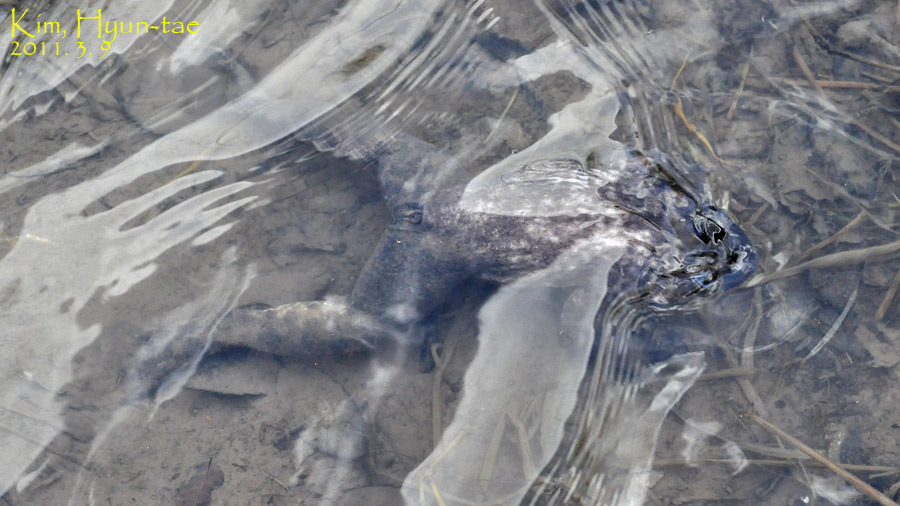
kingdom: Animalia
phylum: Chordata
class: Amphibia
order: Anura
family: Ranidae
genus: Lithobates
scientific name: Lithobates catesbeianus
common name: American bullfrog
